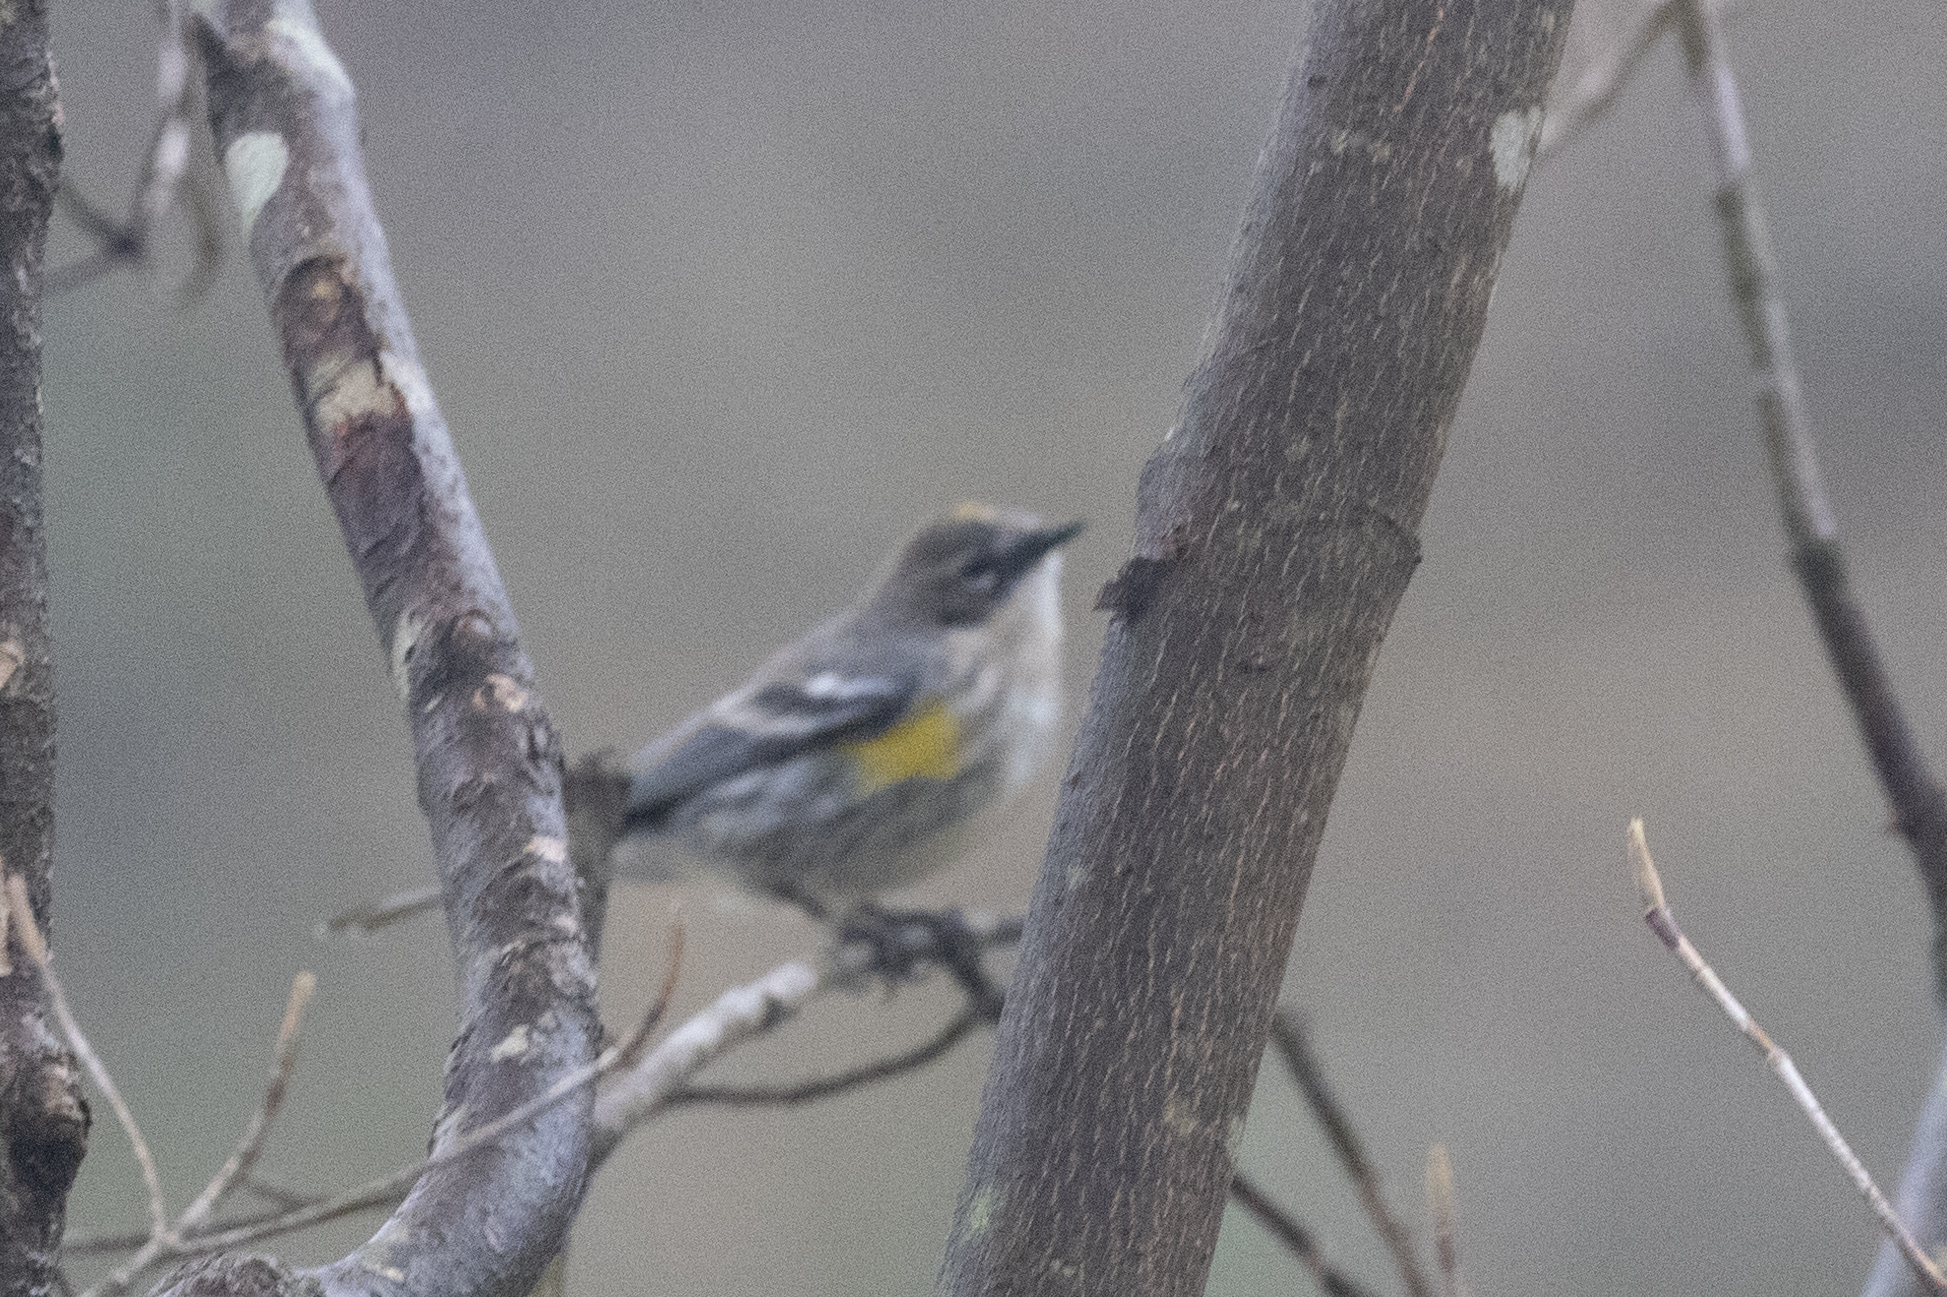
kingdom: Animalia
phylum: Chordata
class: Aves
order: Passeriformes
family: Parulidae
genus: Setophaga
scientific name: Setophaga coronata
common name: Myrtle warbler
